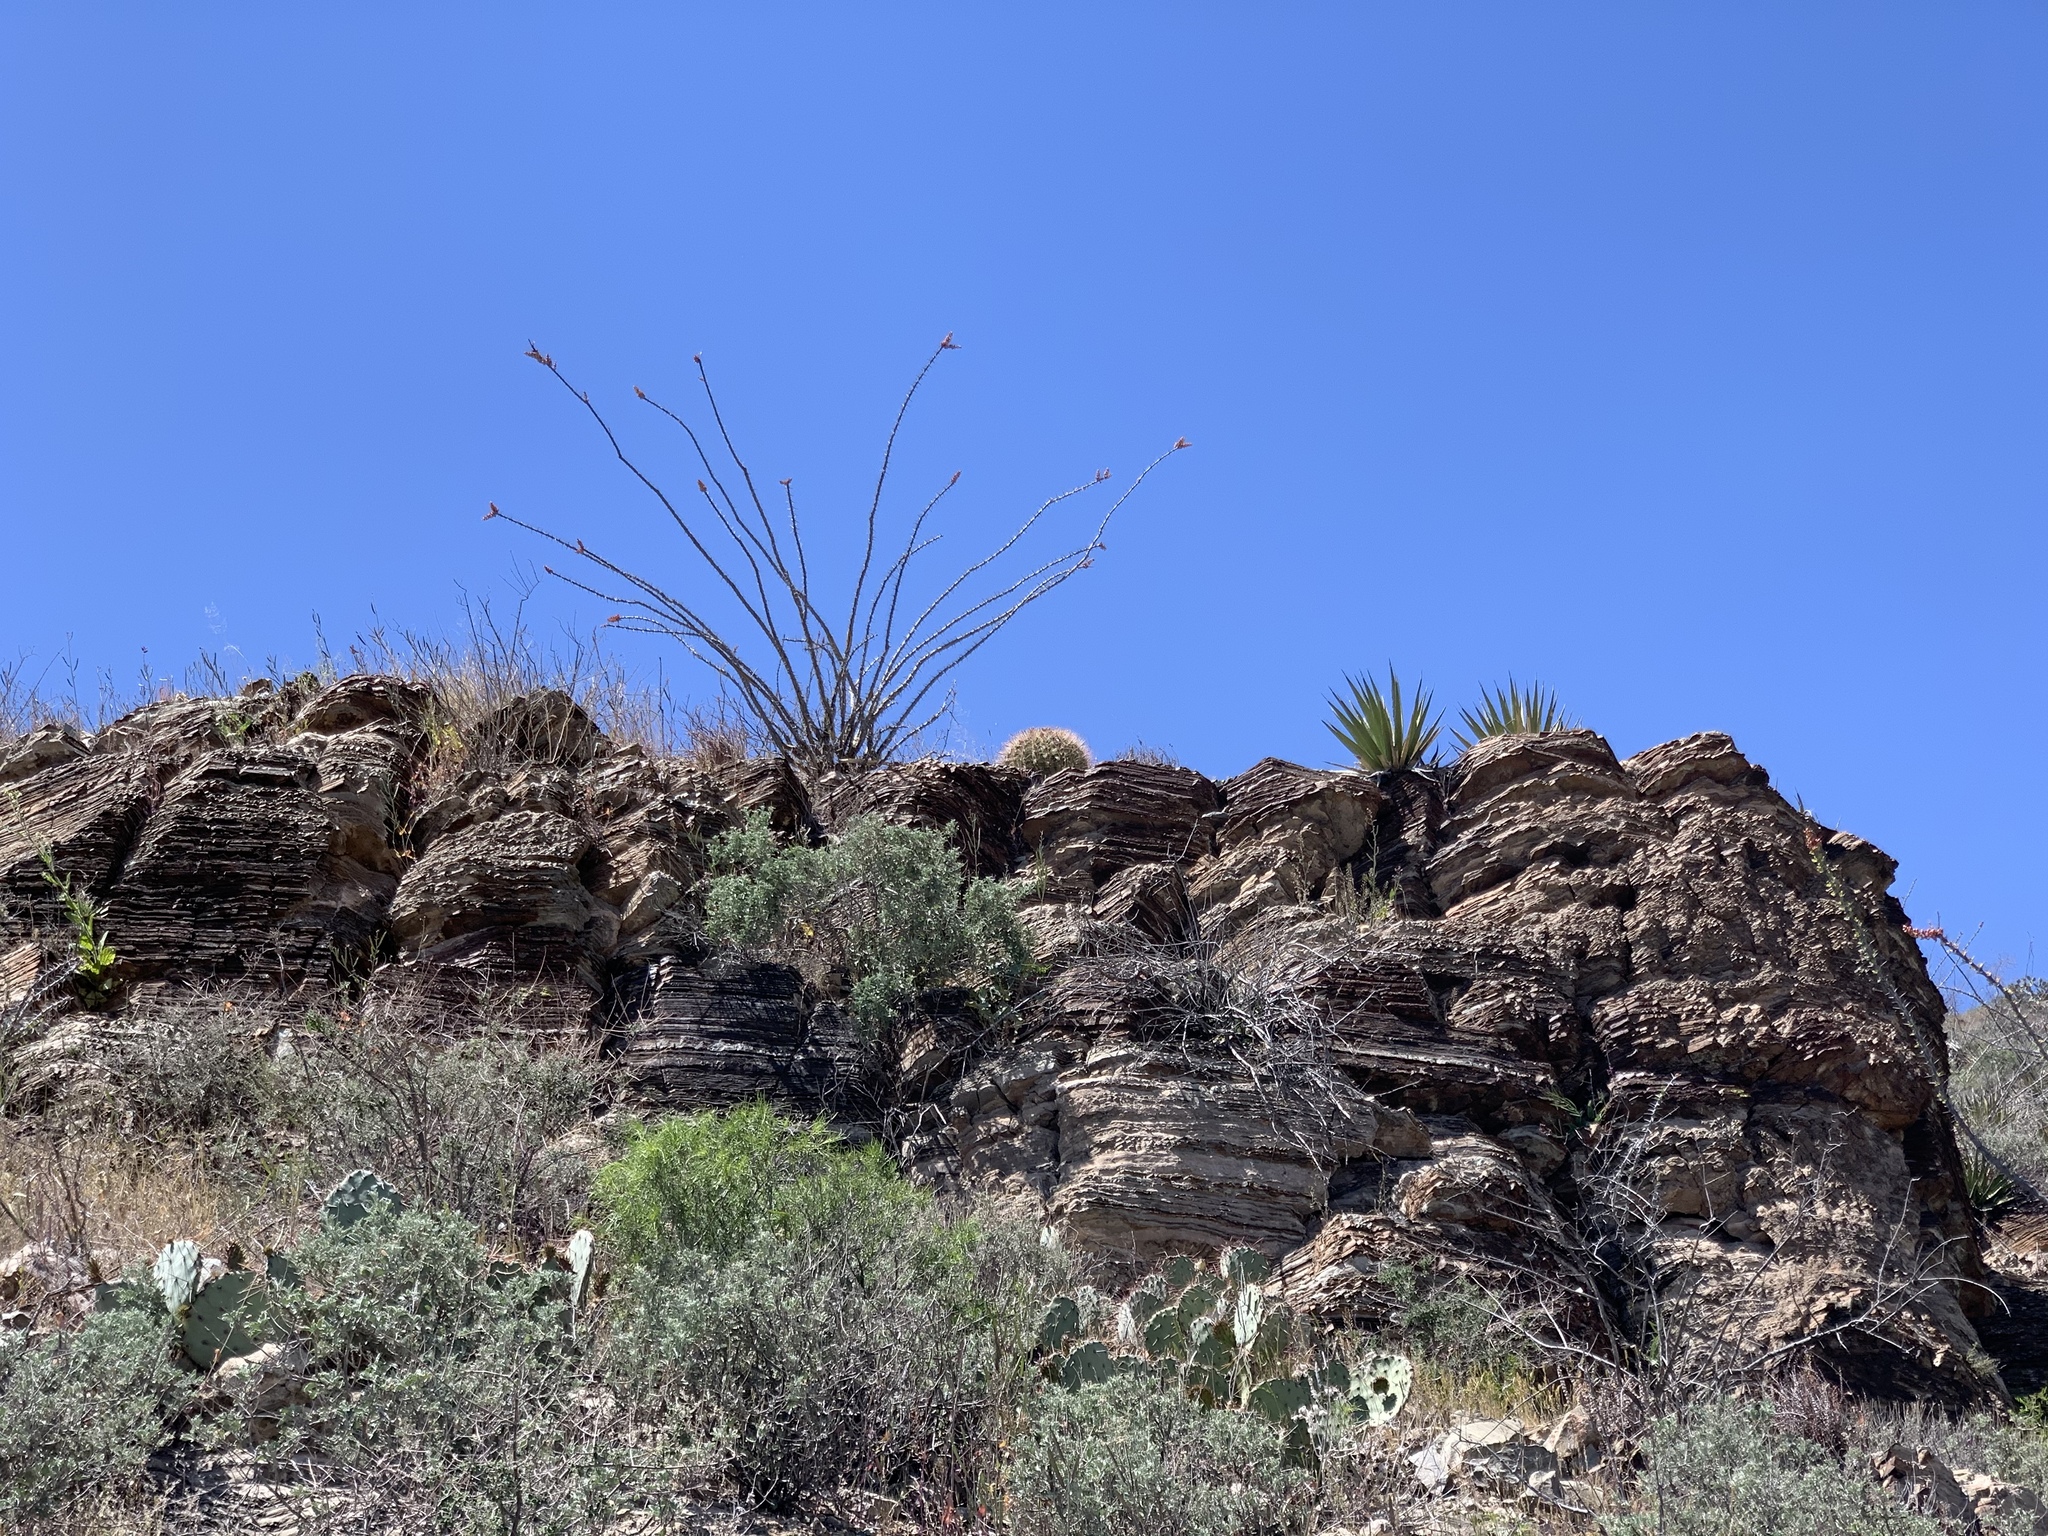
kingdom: Plantae
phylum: Tracheophyta
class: Magnoliopsida
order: Ericales
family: Fouquieriaceae
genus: Fouquieria
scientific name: Fouquieria splendens
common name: Vine-cactus
